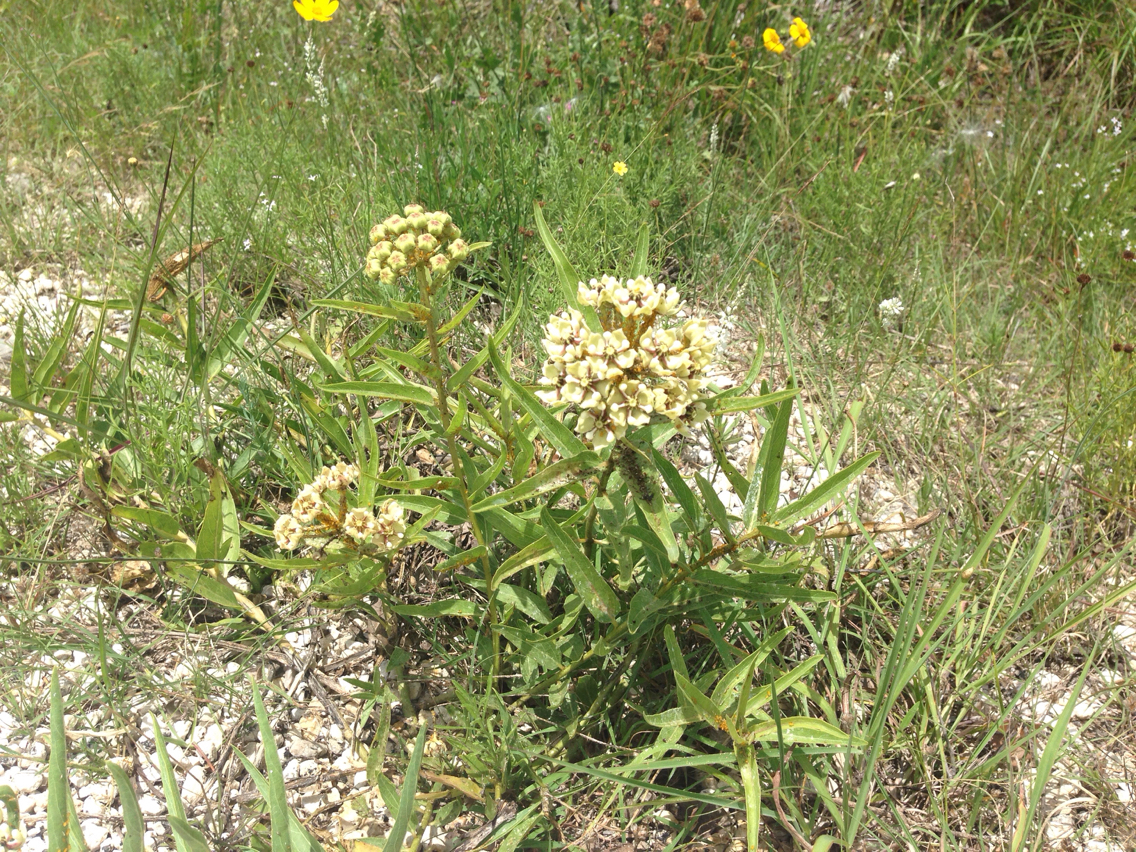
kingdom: Plantae
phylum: Tracheophyta
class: Magnoliopsida
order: Gentianales
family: Apocynaceae
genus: Asclepias
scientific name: Asclepias asperula
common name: Antelope horns
